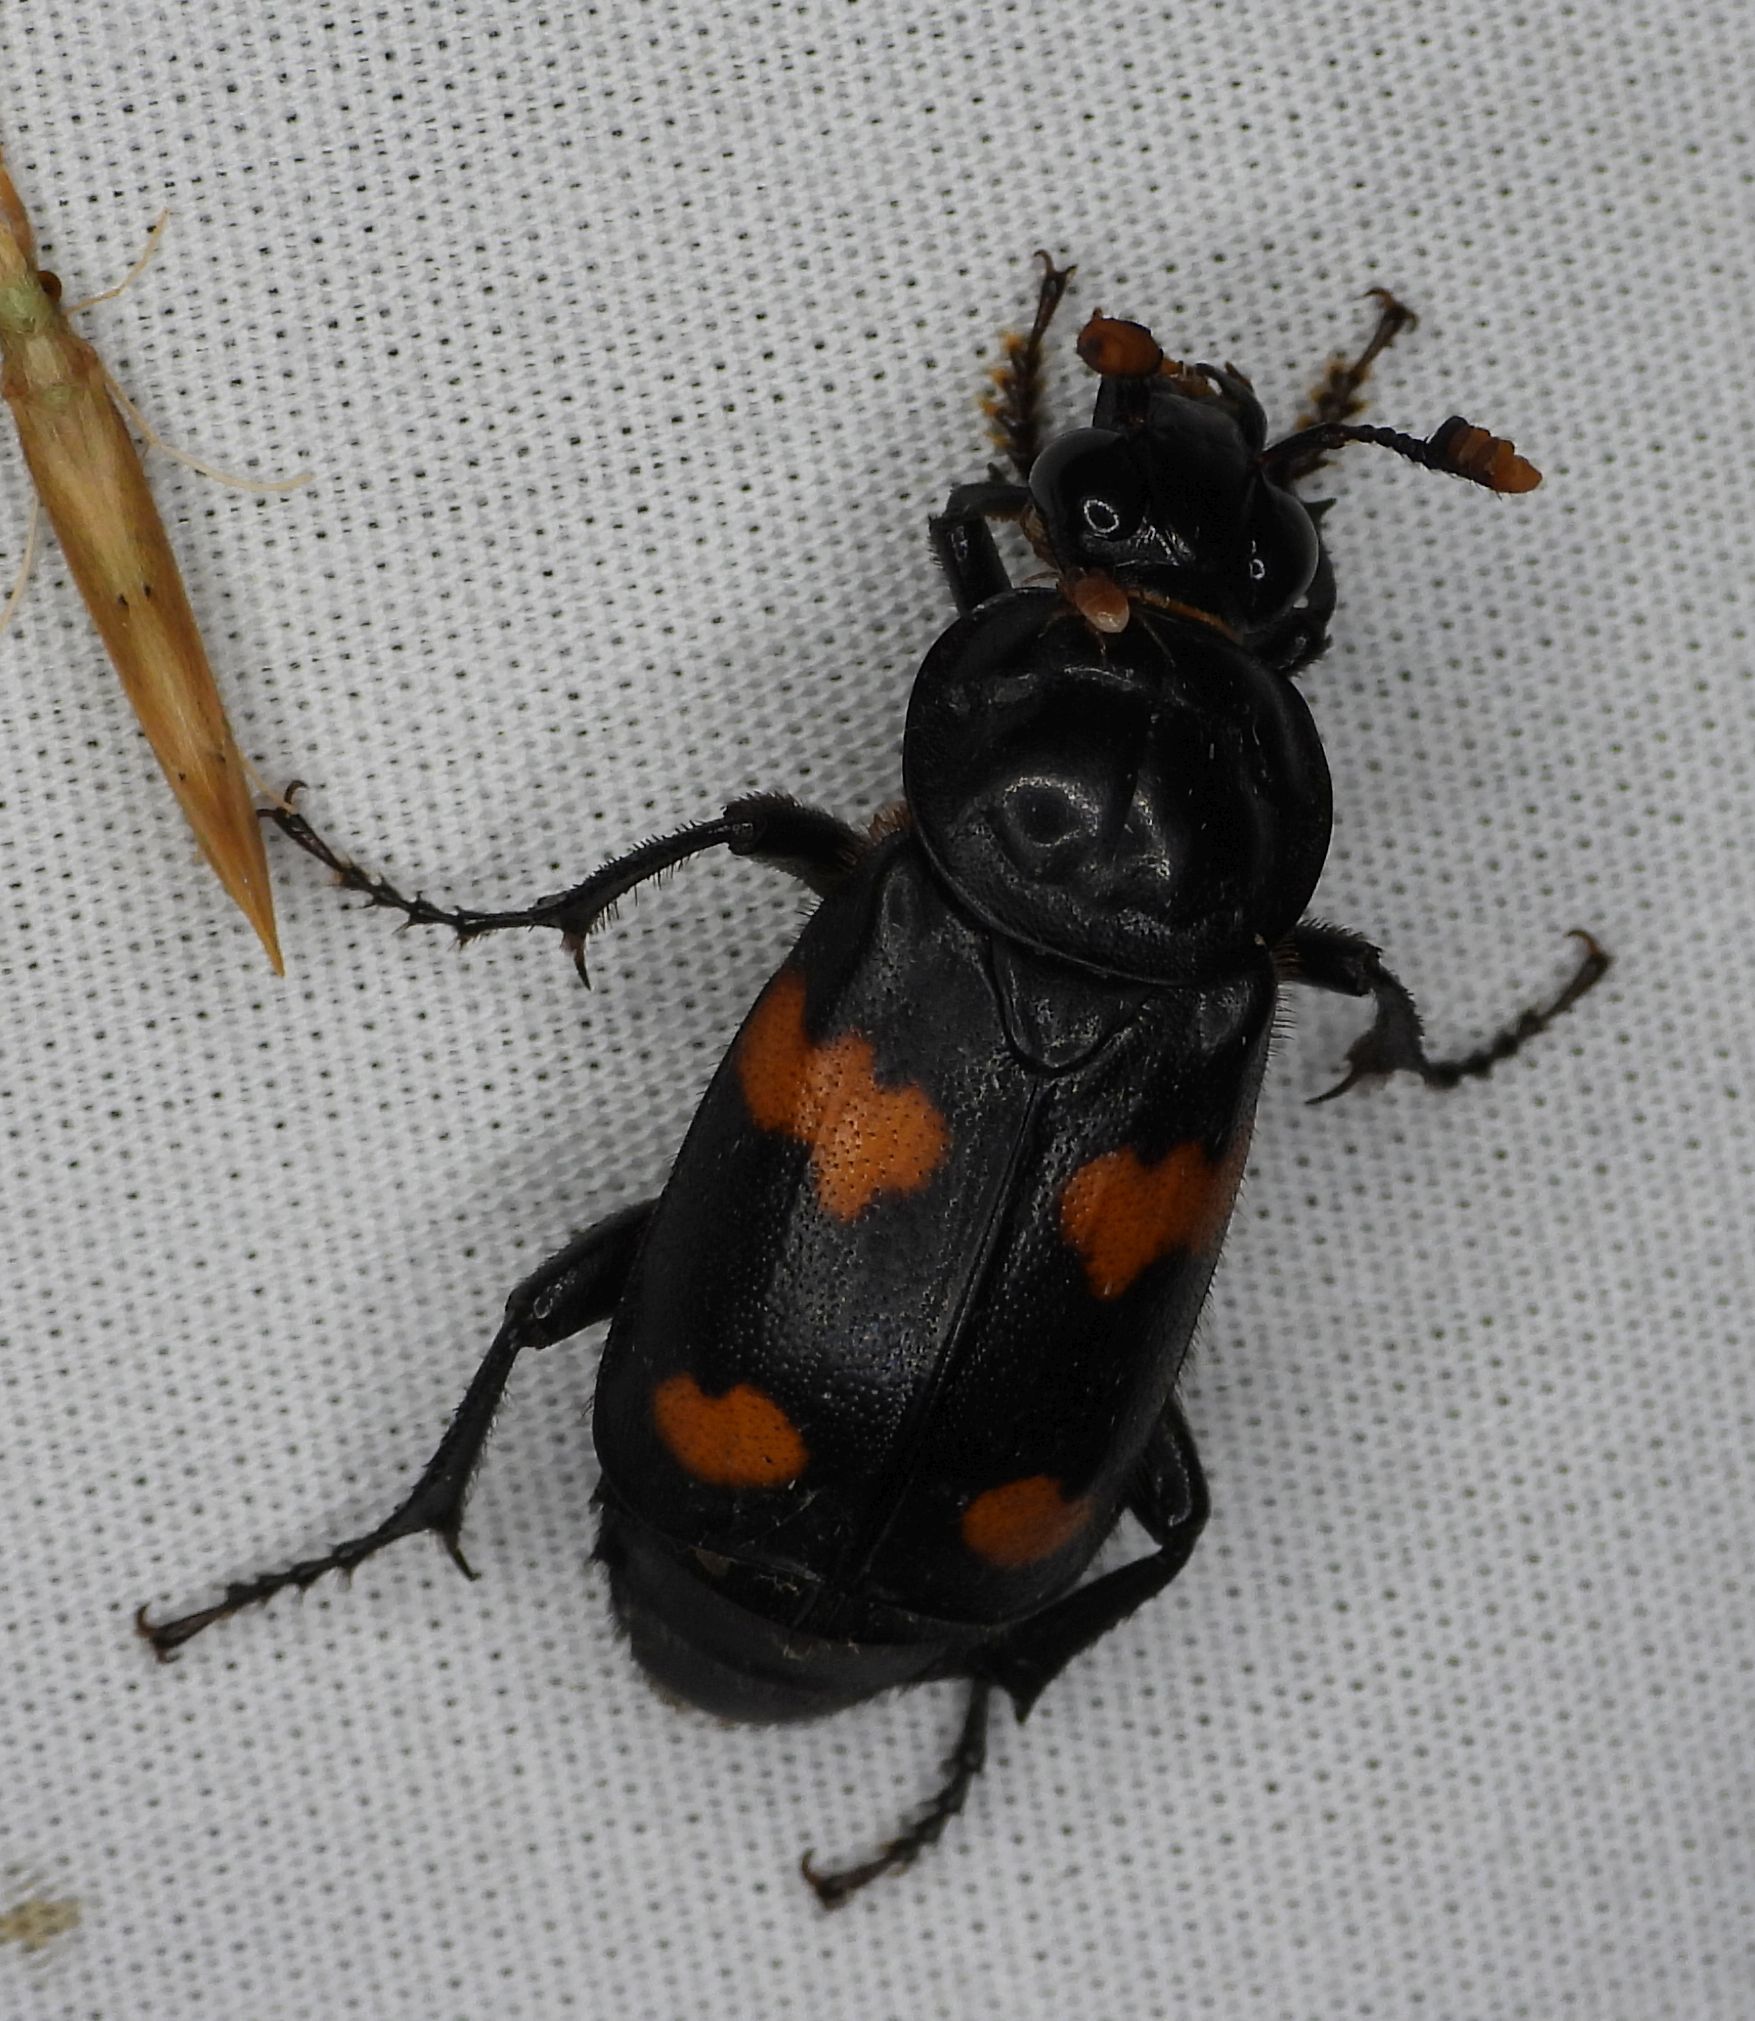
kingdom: Animalia
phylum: Arthropoda
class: Insecta
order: Coleoptera
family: Staphylinidae
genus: Nicrophorus
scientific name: Nicrophorus orbicollis
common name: Roundneck sexton beetle
